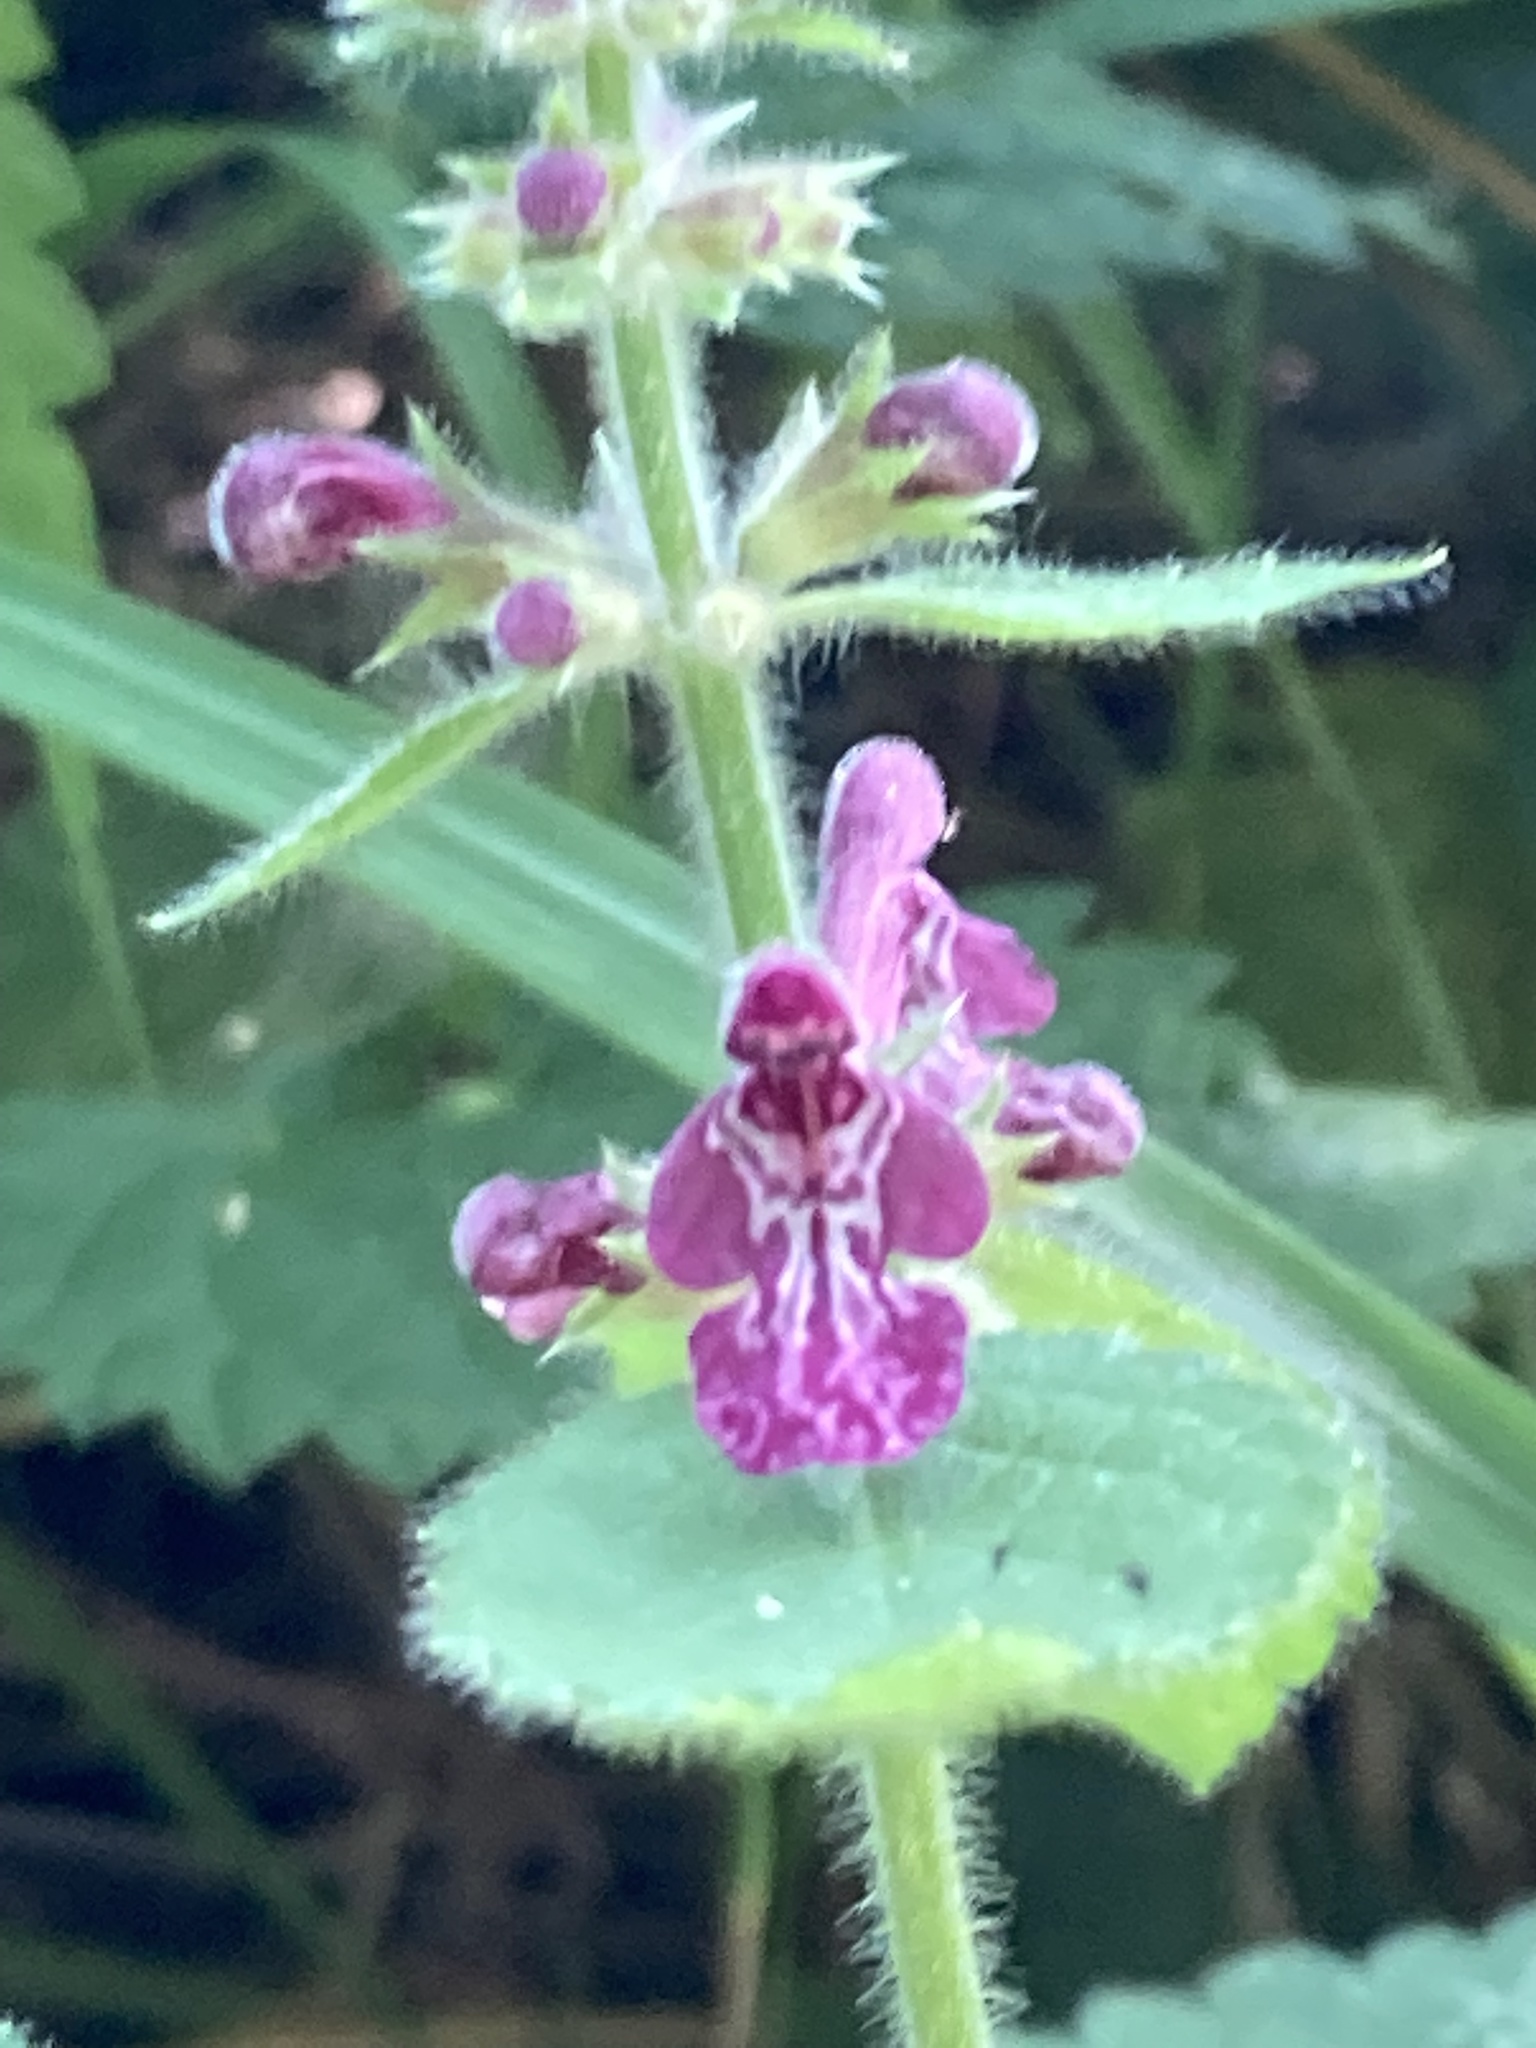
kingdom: Plantae
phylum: Tracheophyta
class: Magnoliopsida
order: Lamiales
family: Lamiaceae
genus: Stachys
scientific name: Stachys sylvatica
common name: Hedge woundwort
